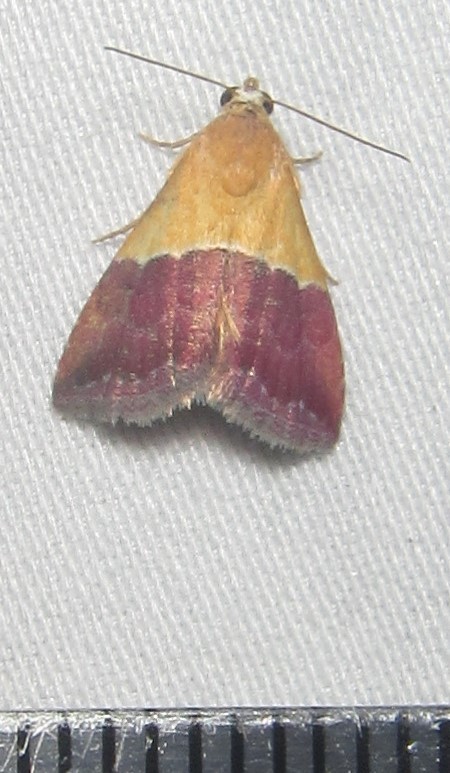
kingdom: Animalia
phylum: Arthropoda
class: Insecta
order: Lepidoptera
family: Noctuidae
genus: Eublemma
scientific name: Eublemma caffrorum
